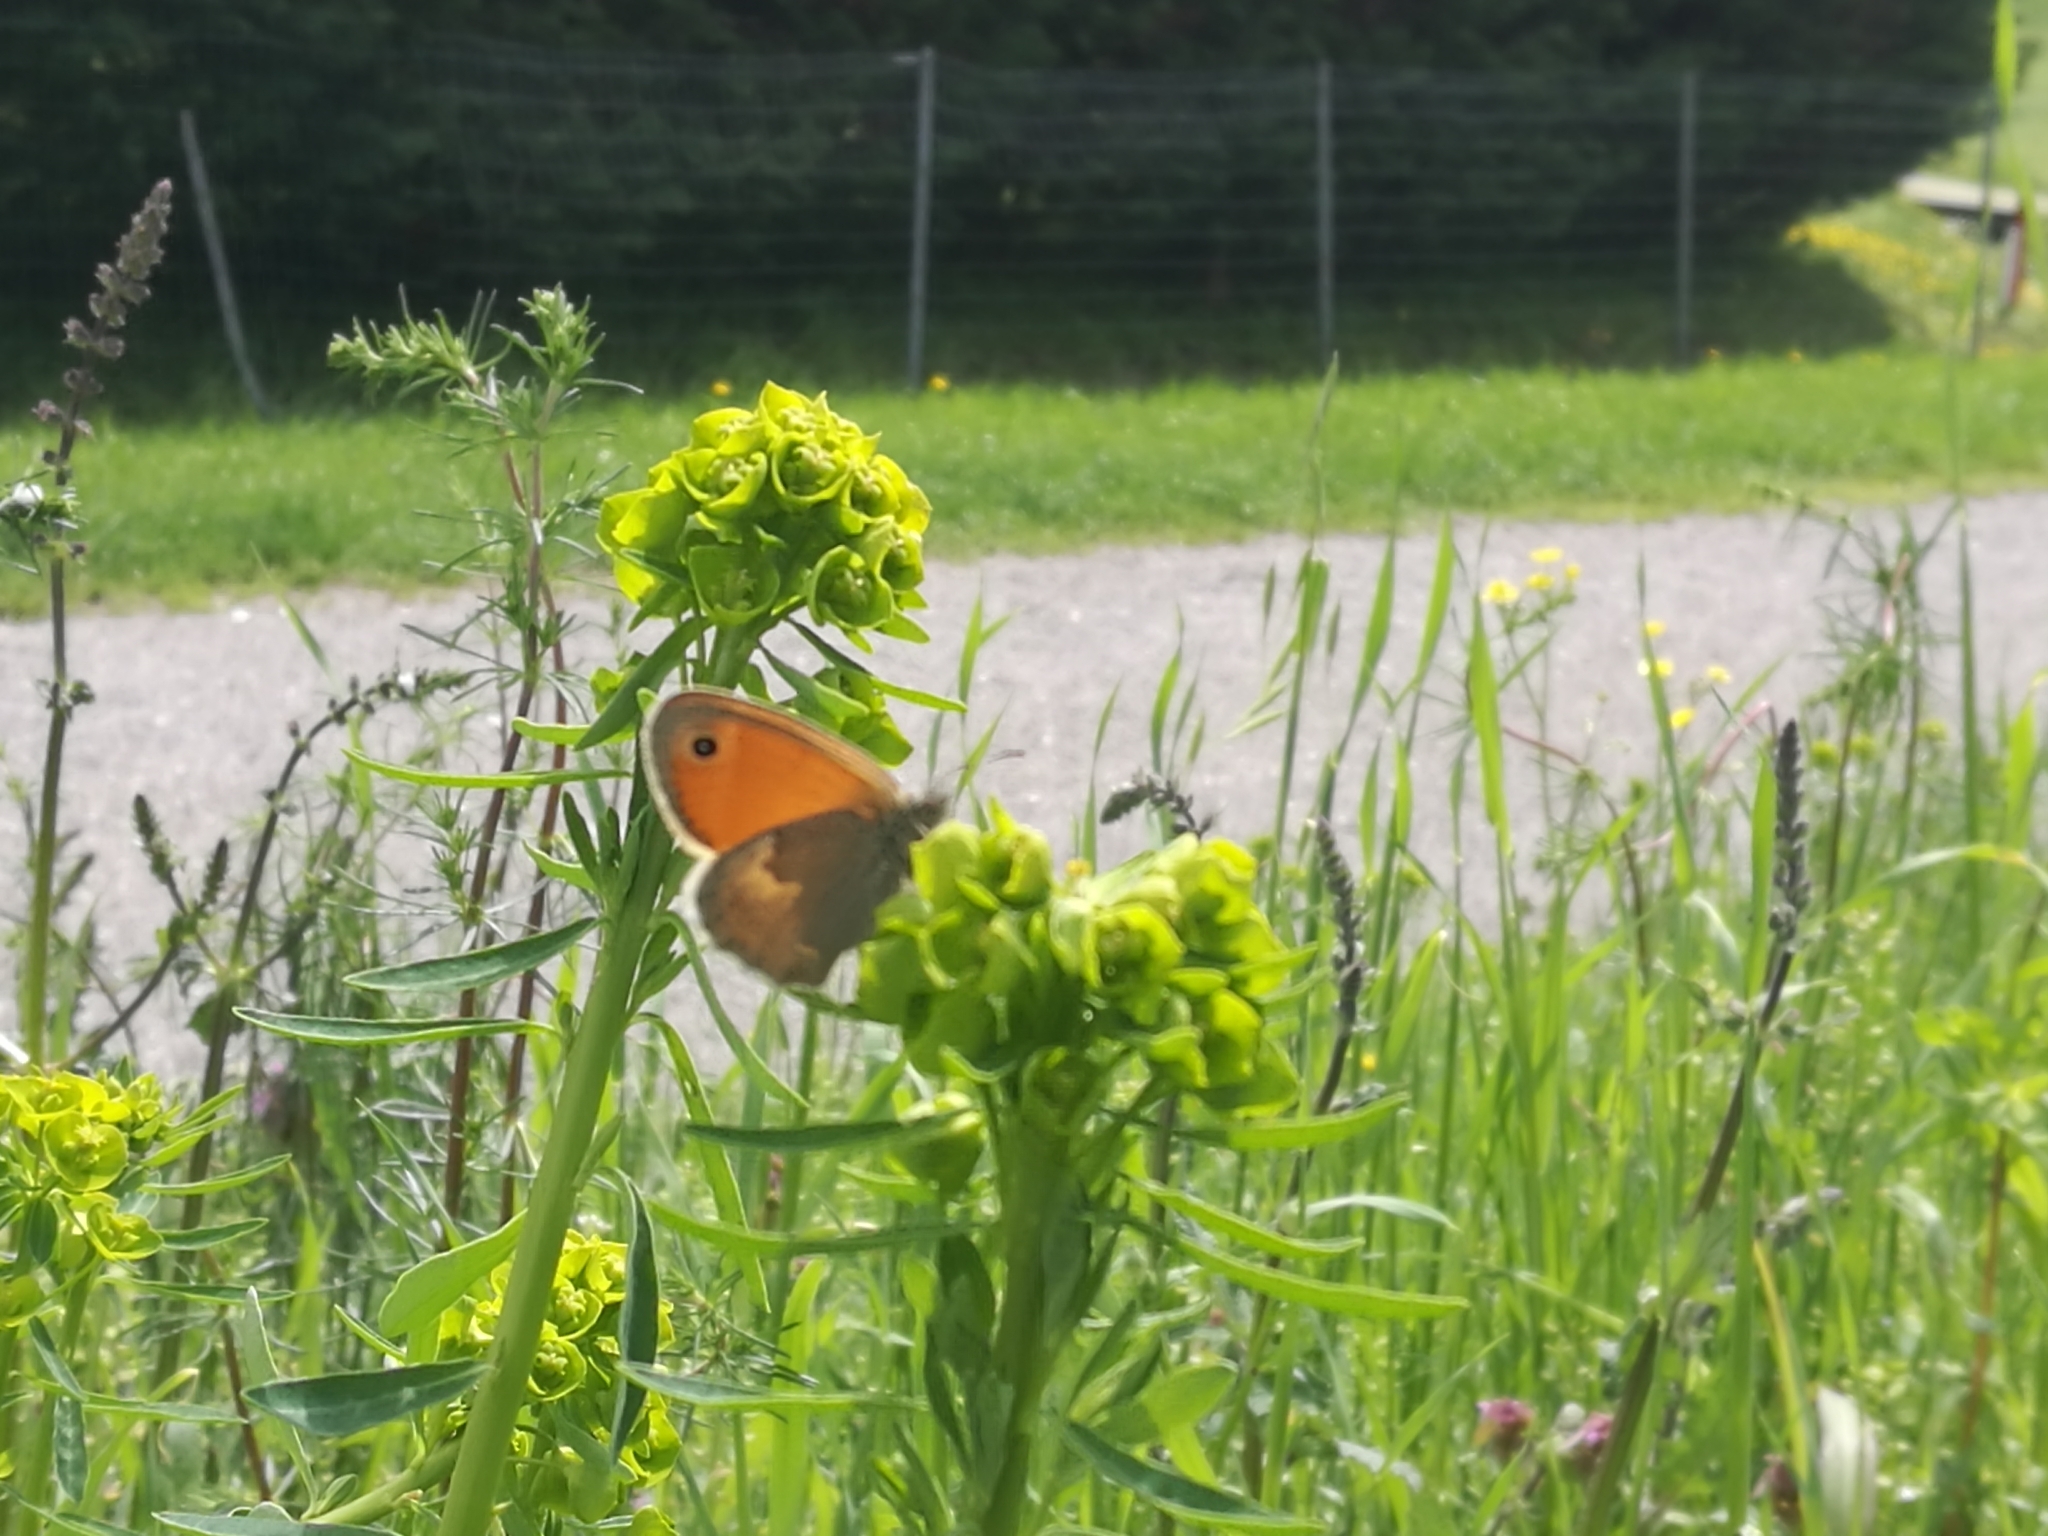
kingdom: Animalia
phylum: Arthropoda
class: Insecta
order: Lepidoptera
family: Nymphalidae
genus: Coenonympha
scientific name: Coenonympha pamphilus
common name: Small heath
